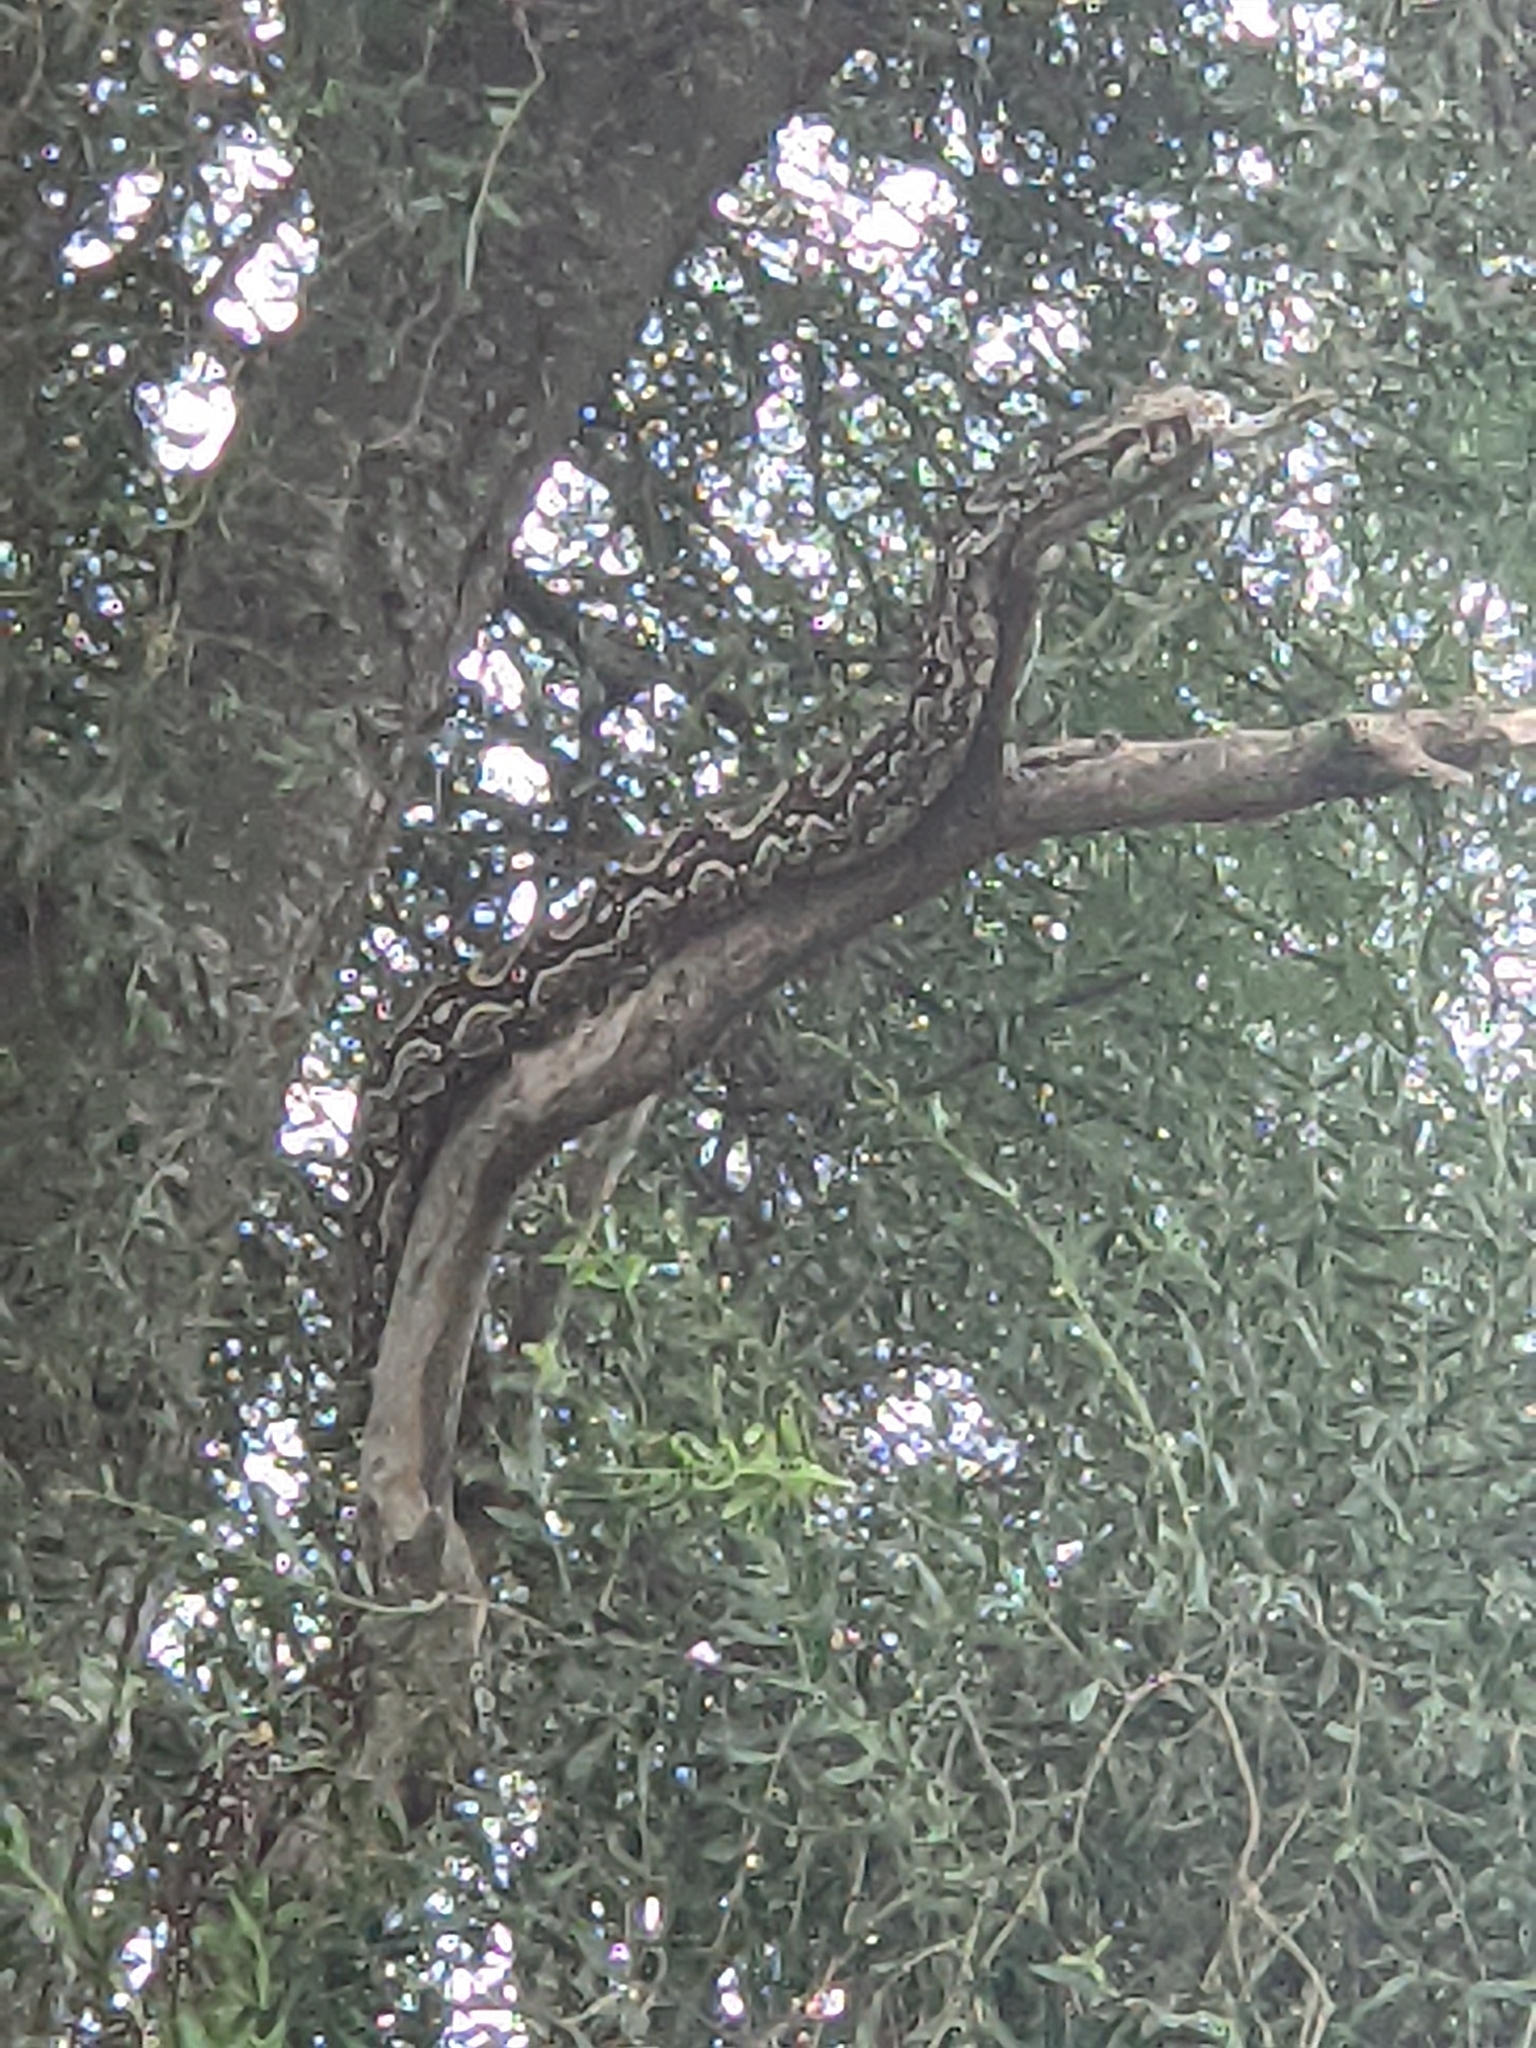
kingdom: Animalia
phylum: Chordata
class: Squamata
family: Boidae
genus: Boa
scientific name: Boa constrictor
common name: Boa constrictor
